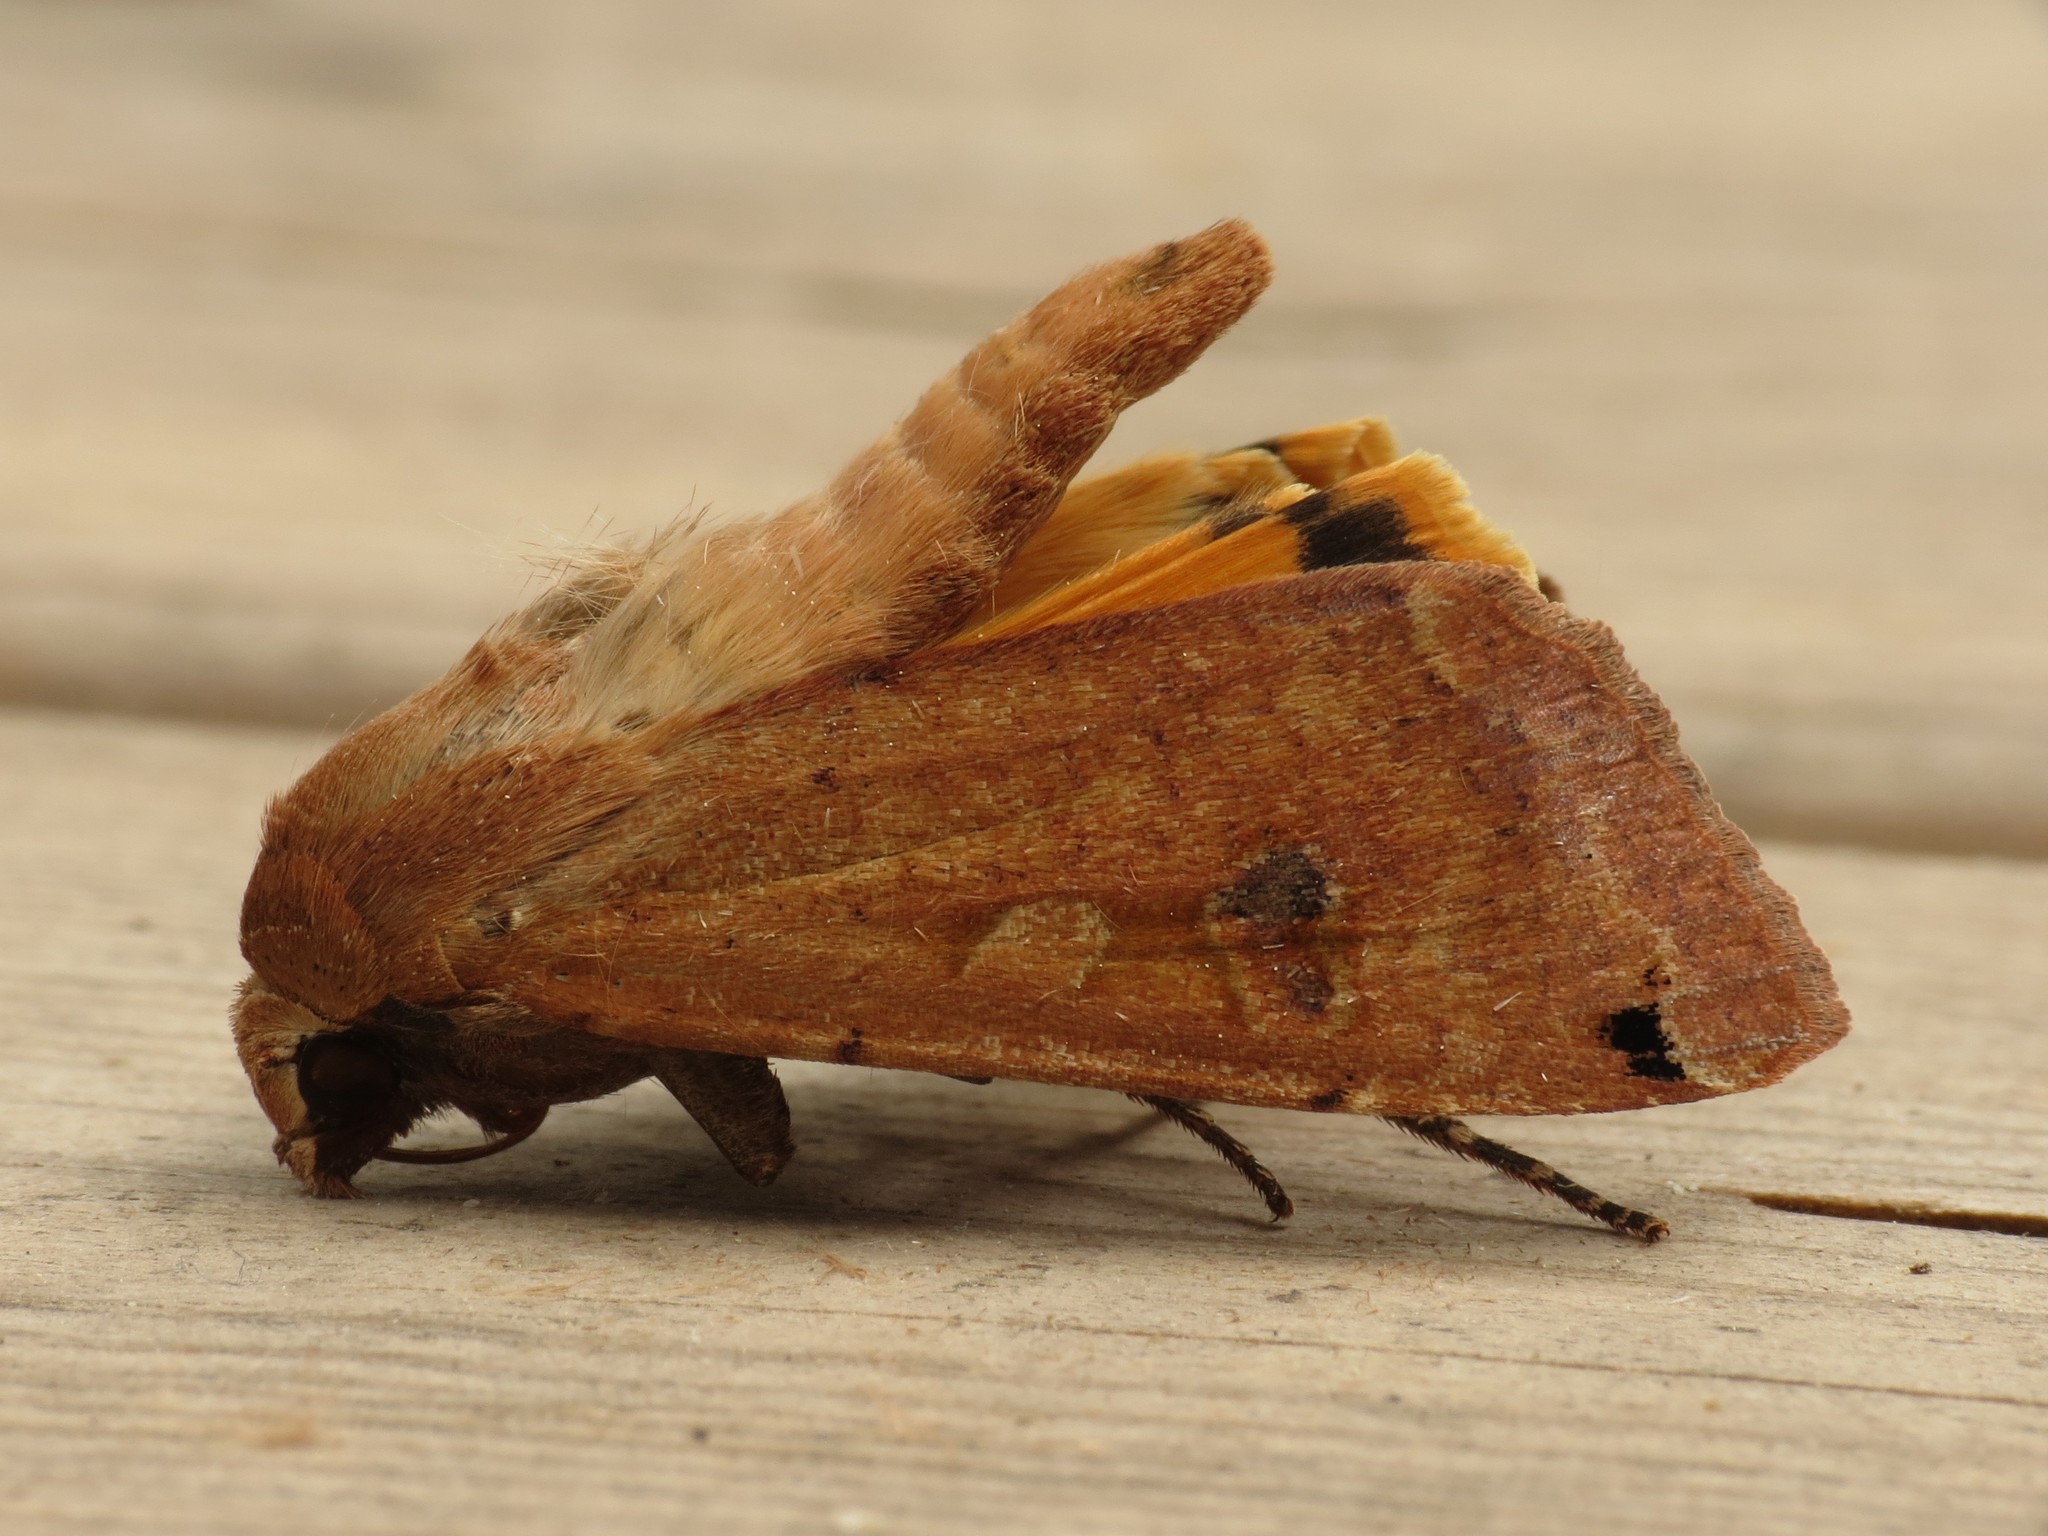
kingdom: Animalia
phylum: Arthropoda
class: Insecta
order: Lepidoptera
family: Noctuidae
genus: Noctua
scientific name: Noctua pronuba
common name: Large yellow underwing
